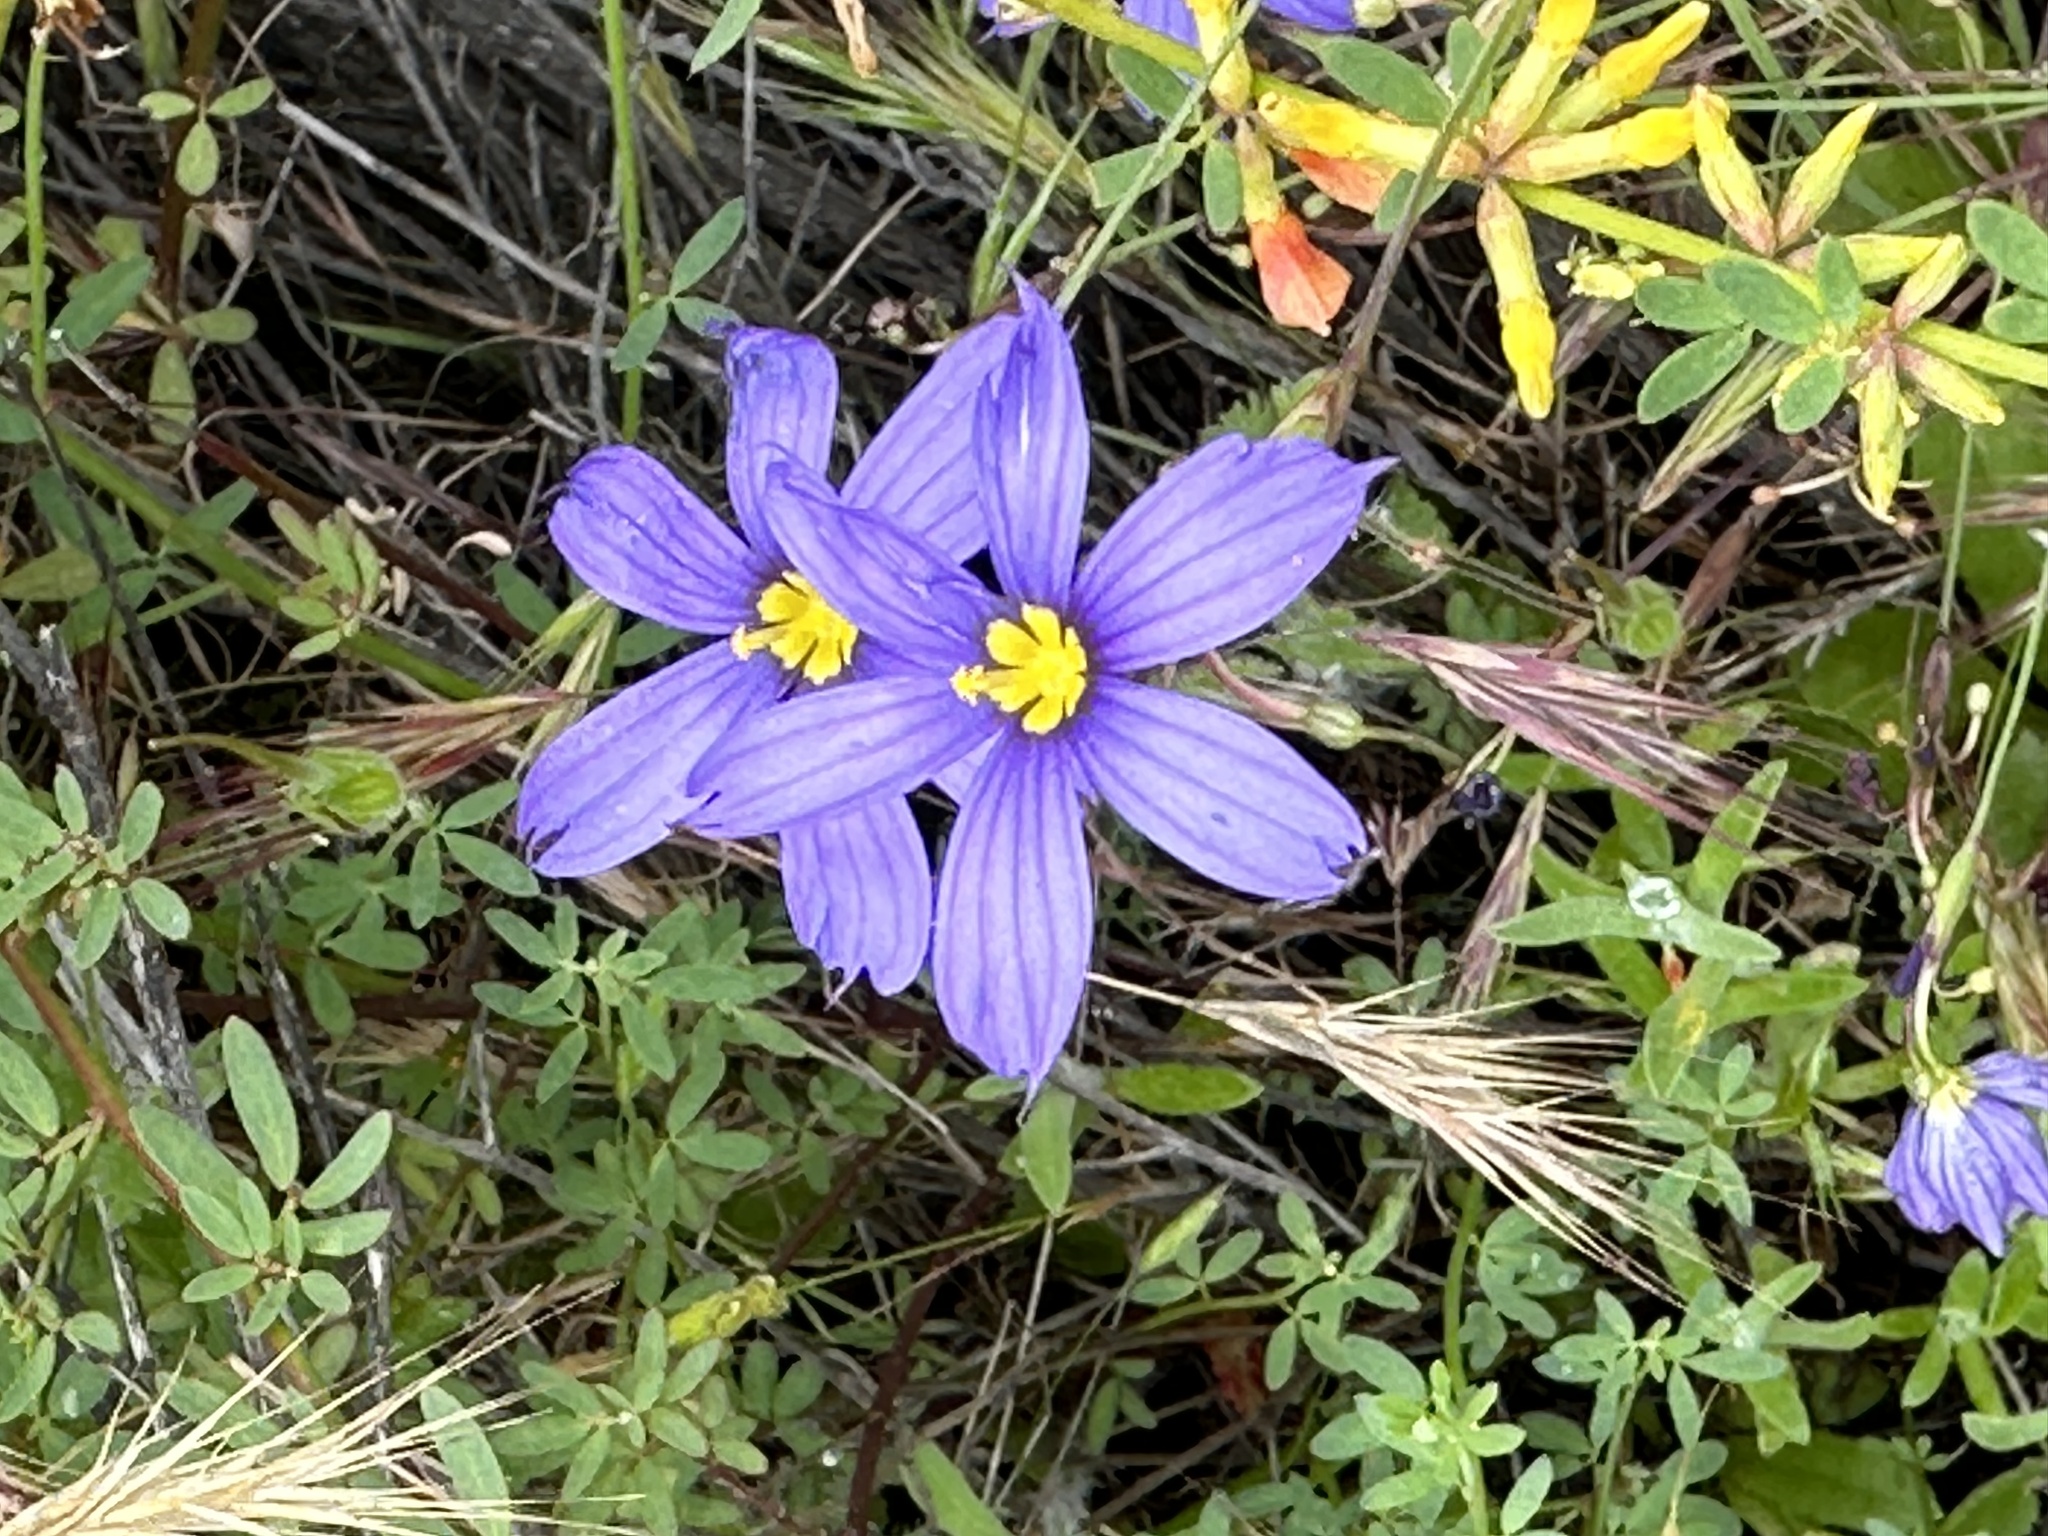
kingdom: Plantae
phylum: Tracheophyta
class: Liliopsida
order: Asparagales
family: Iridaceae
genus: Sisyrinchium
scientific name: Sisyrinchium bellum
